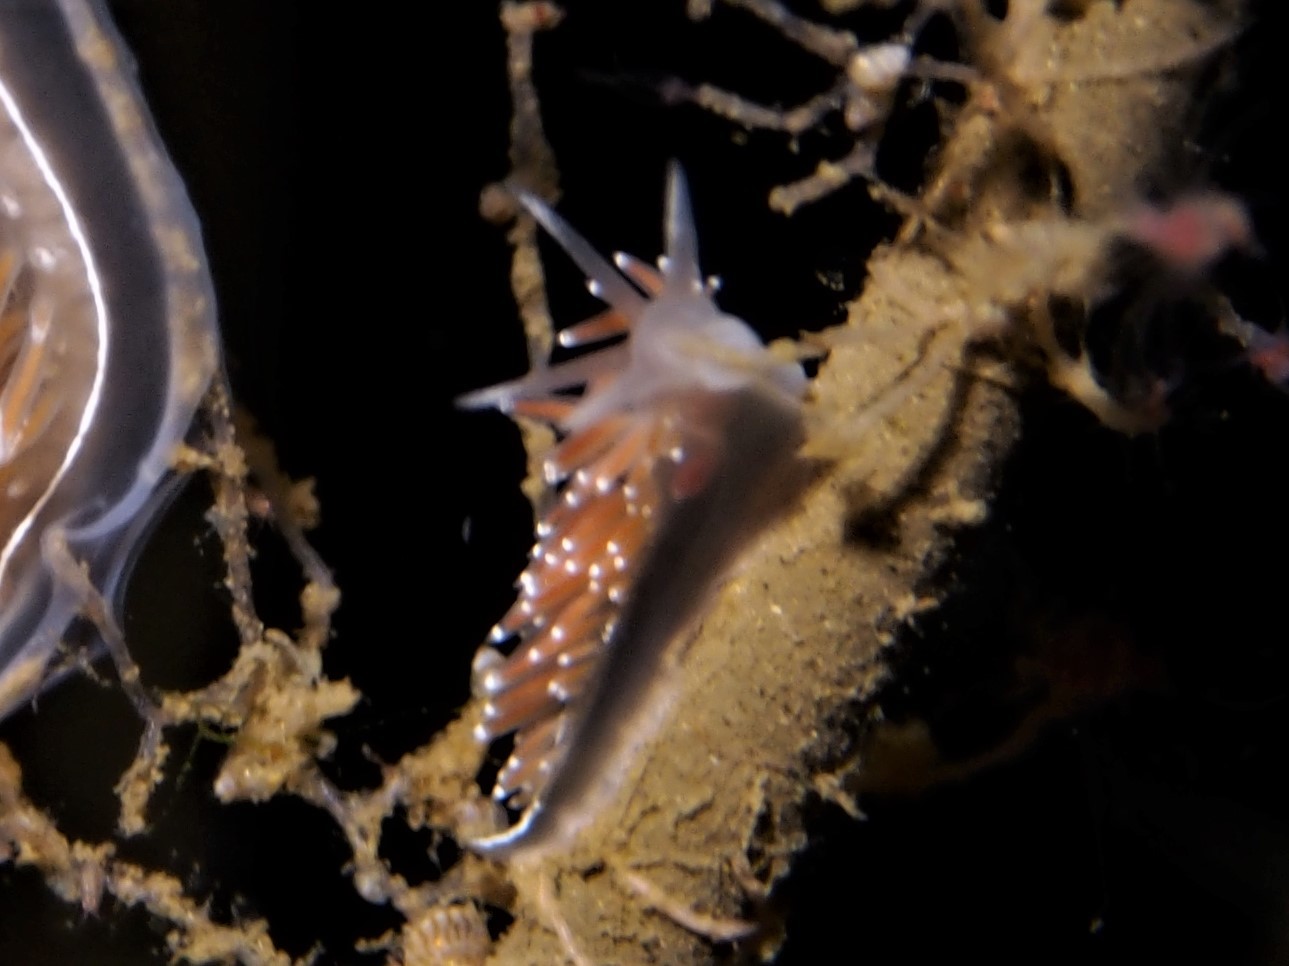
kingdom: Animalia
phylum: Mollusca
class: Gastropoda
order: Nudibranchia
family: Coryphellidae
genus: Coryphella
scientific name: Coryphella verrucosa
